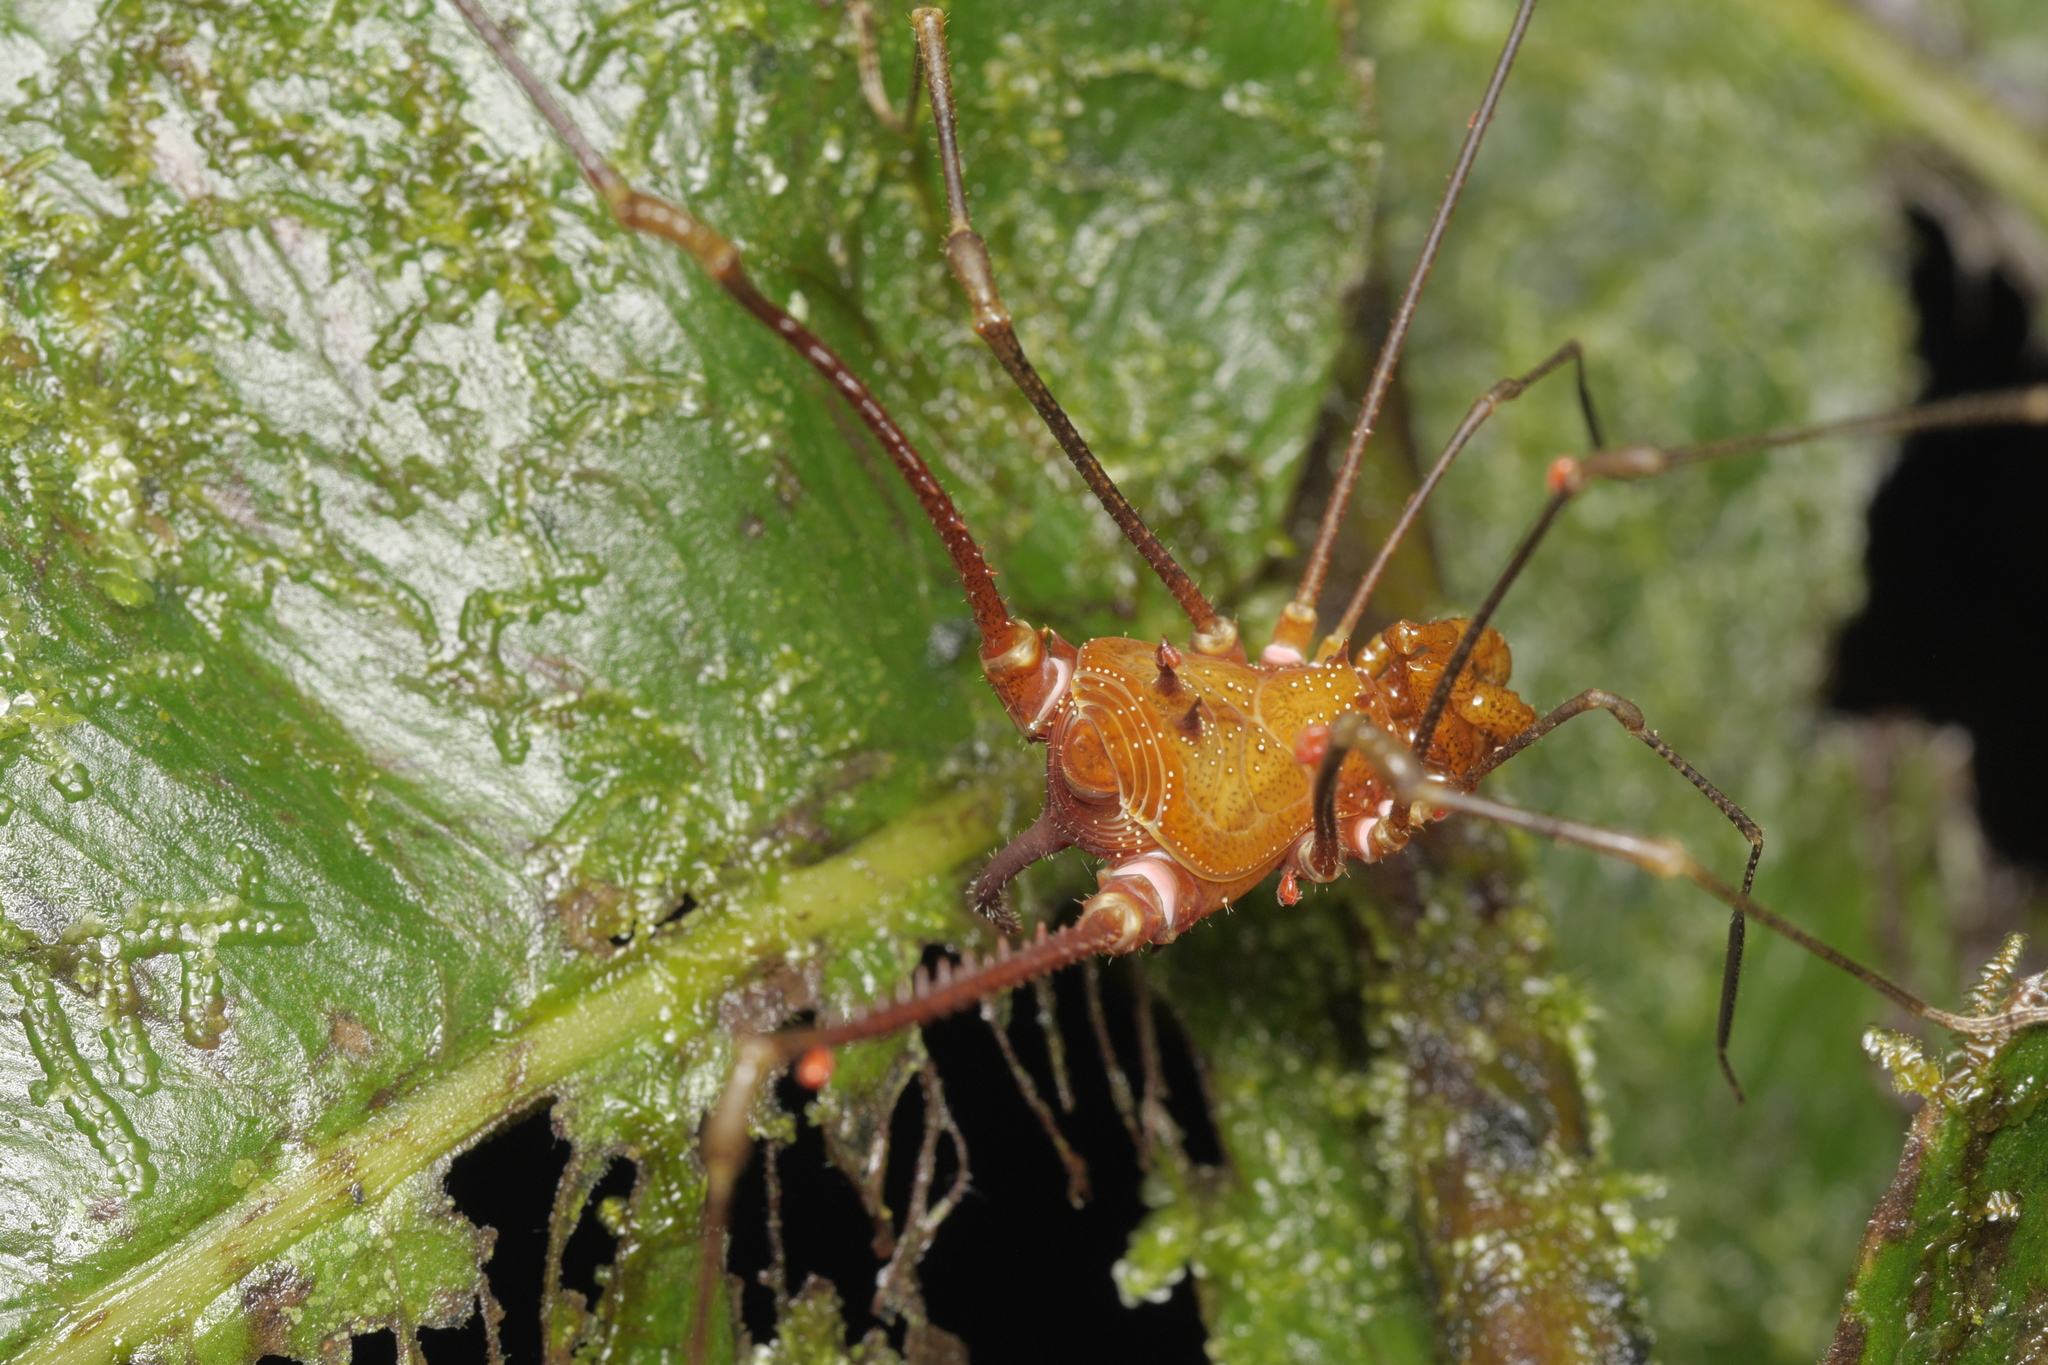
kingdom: Animalia
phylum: Arthropoda
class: Arachnida
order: Opiliones
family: Cranaidae
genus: Ventrivomer
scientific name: Ventrivomer ancyrophorus
